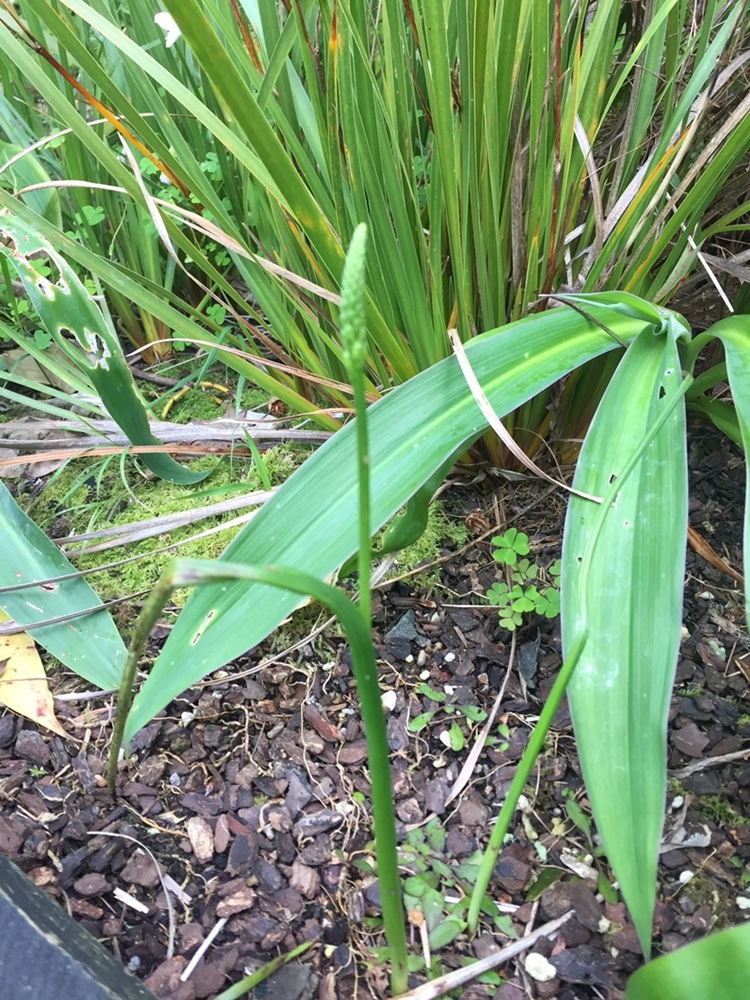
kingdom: Plantae
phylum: Tracheophyta
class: Liliopsida
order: Asparagales
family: Orchidaceae
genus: Microtis
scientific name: Microtis unifolia
